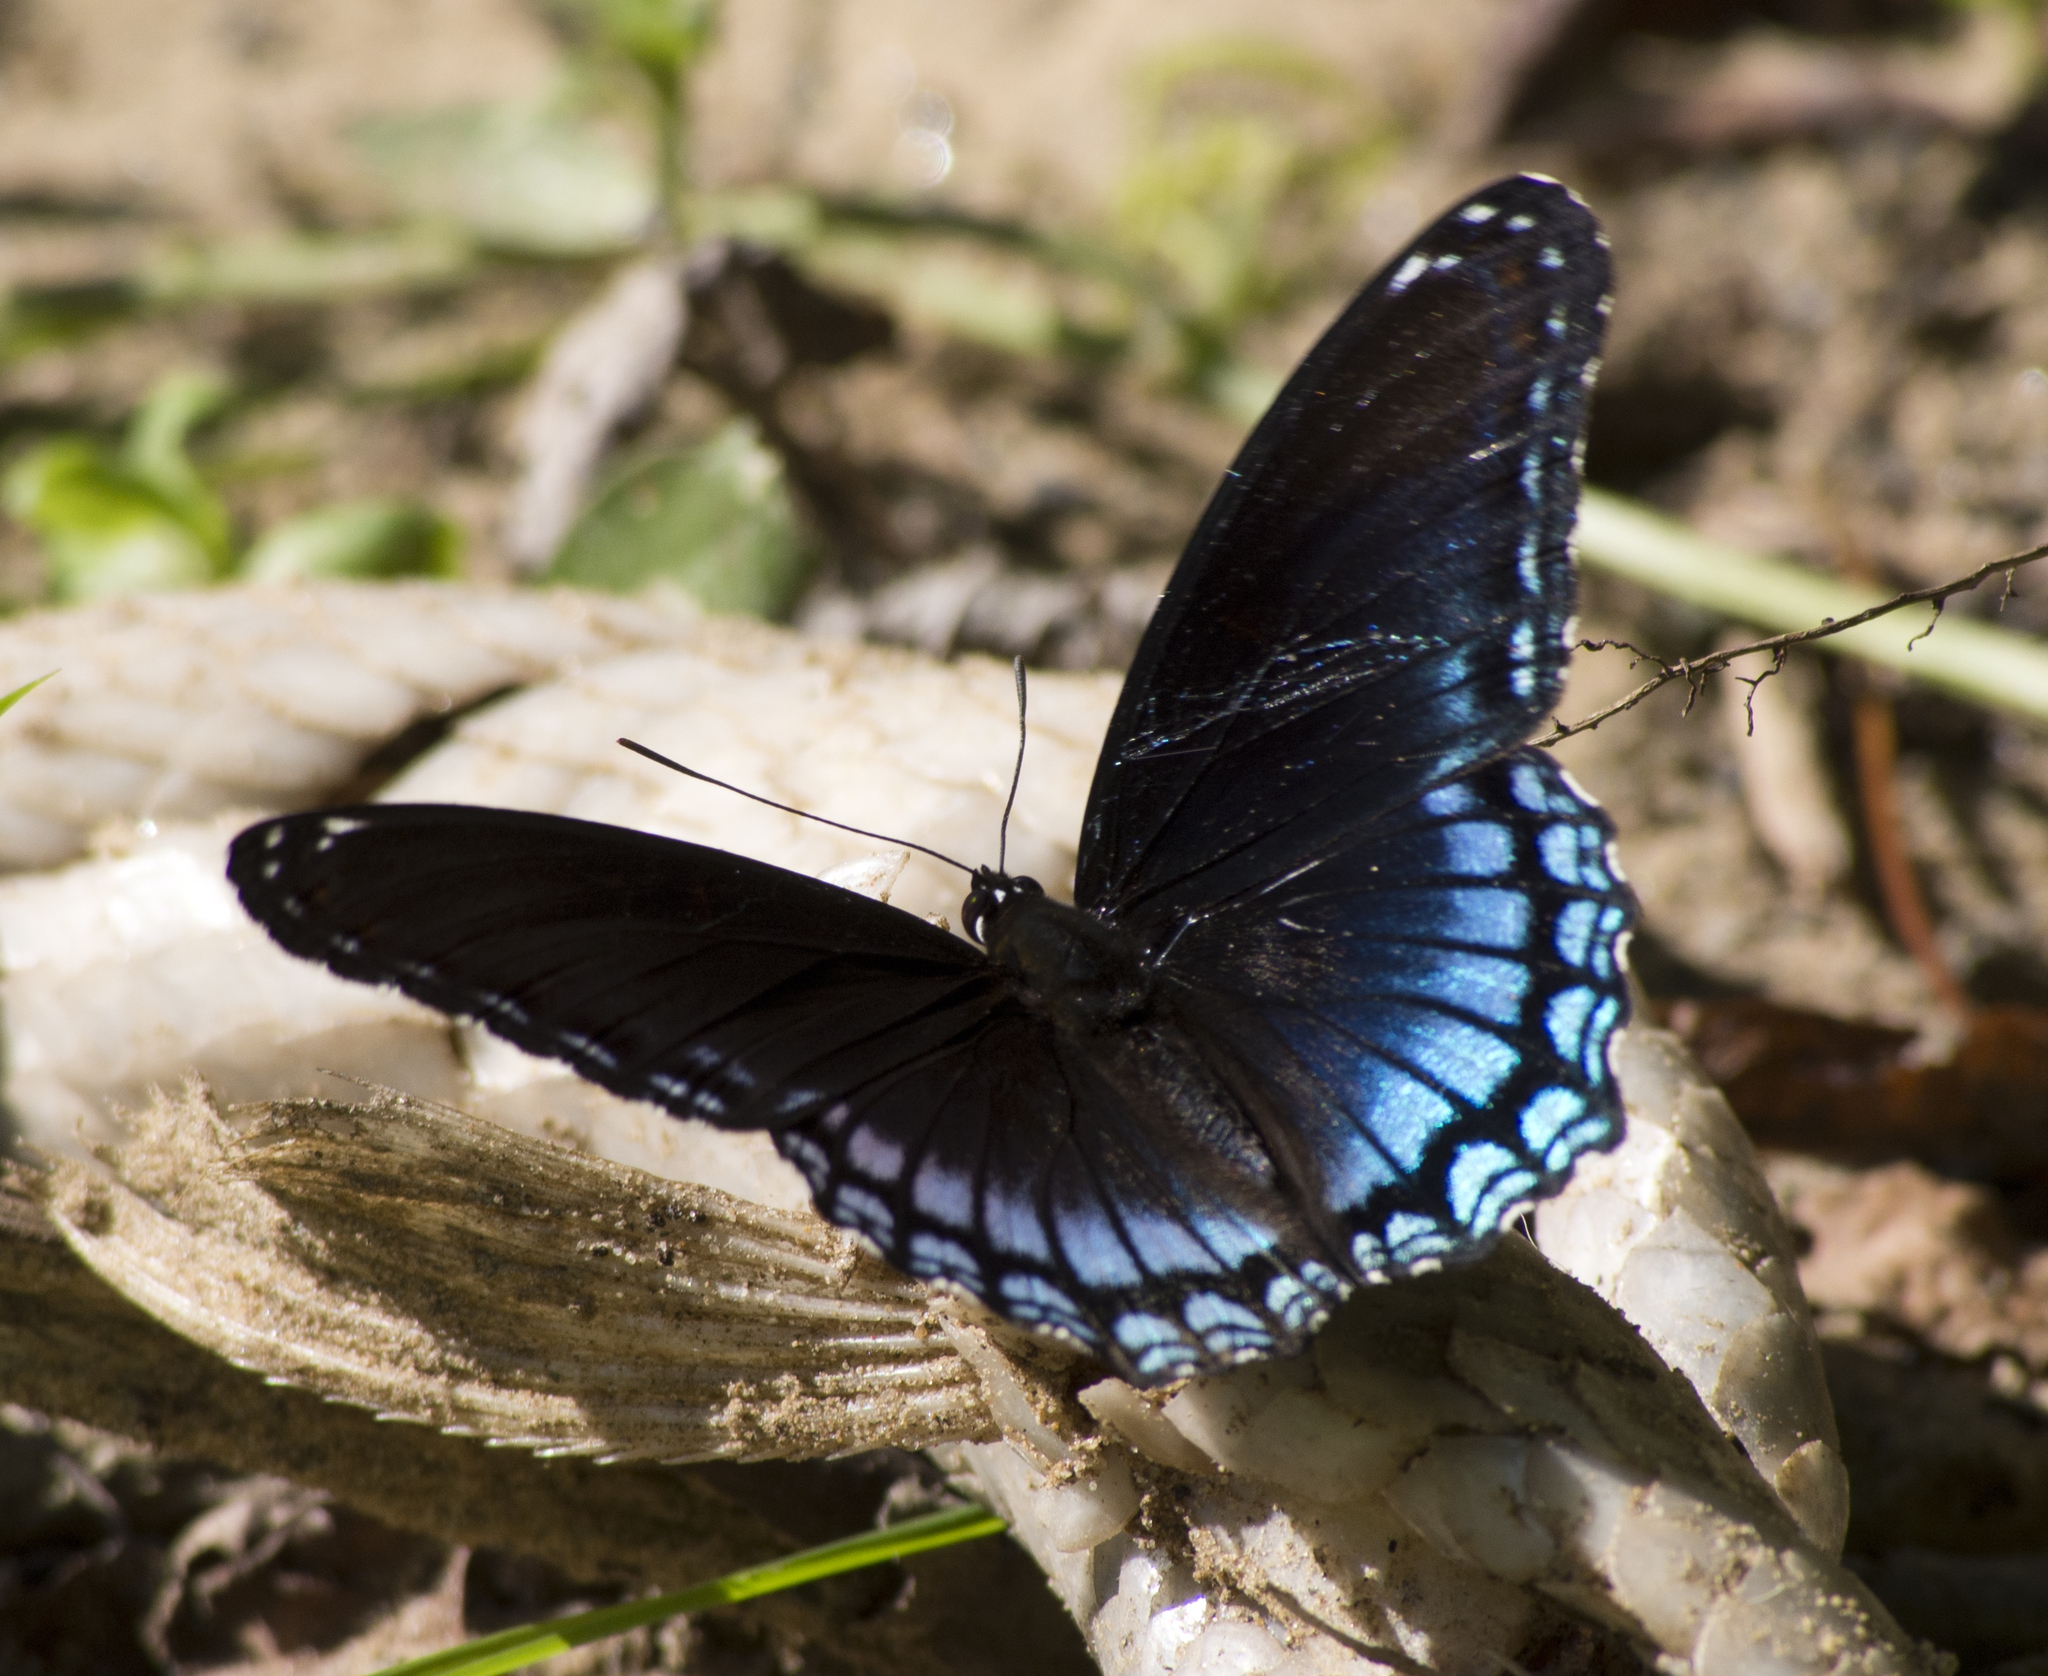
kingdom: Animalia
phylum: Arthropoda
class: Insecta
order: Lepidoptera
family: Nymphalidae
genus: Limenitis
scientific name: Limenitis astyanax
